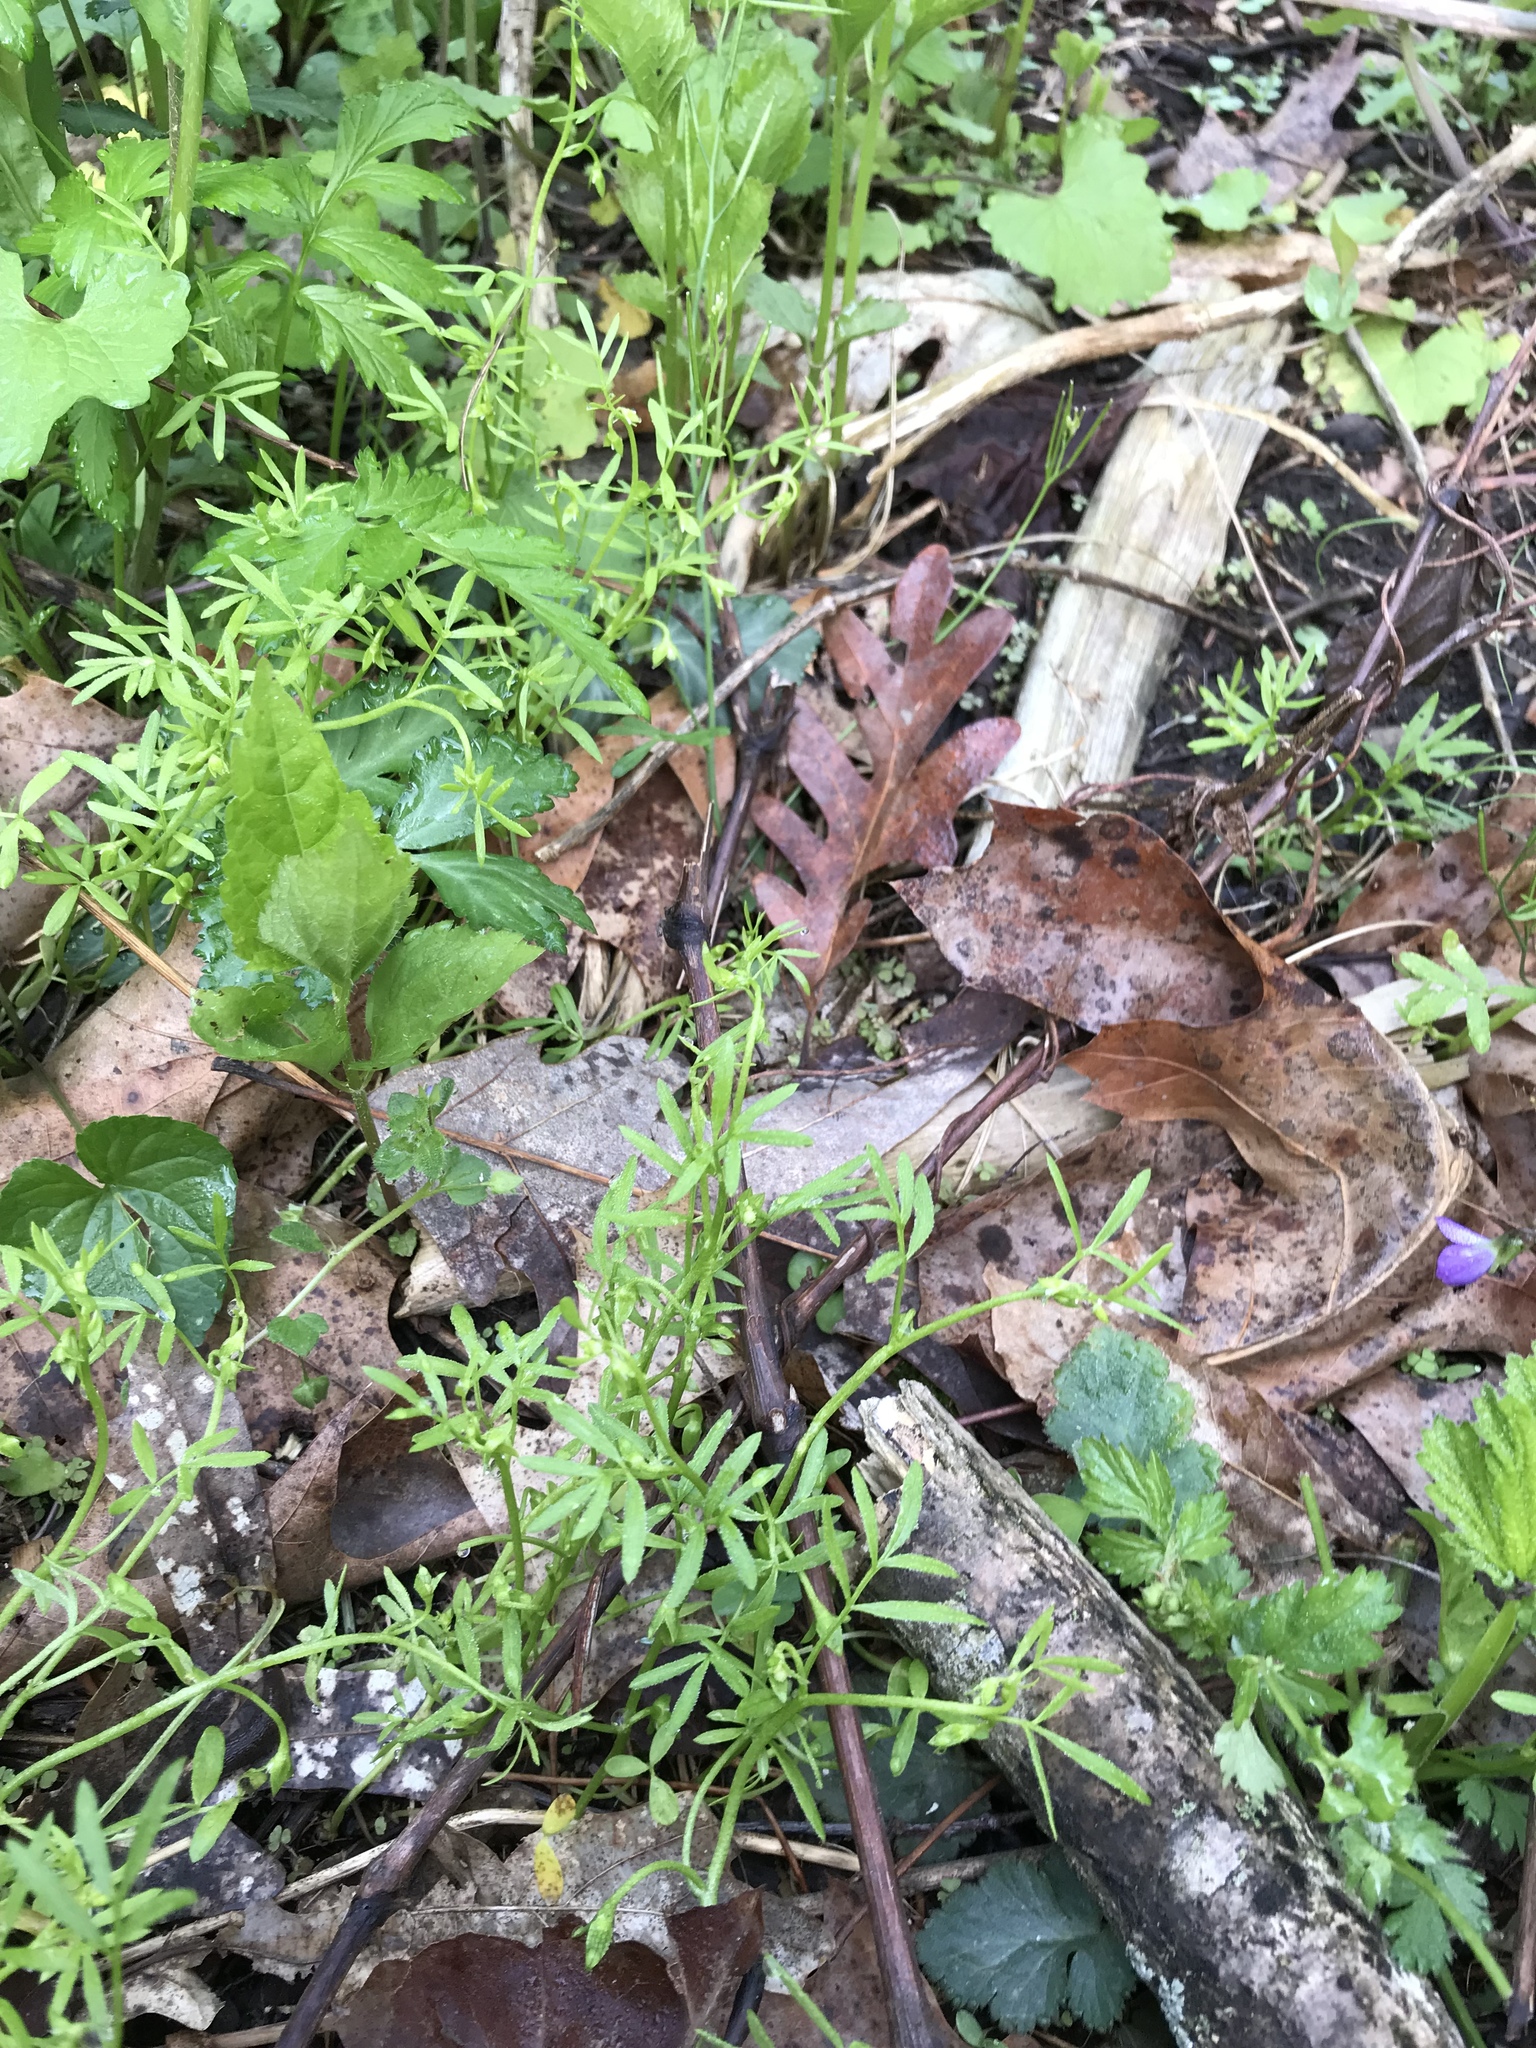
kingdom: Plantae
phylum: Tracheophyta
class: Magnoliopsida
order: Brassicales
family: Limnanthaceae
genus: Floerkea
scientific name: Floerkea proserpinacoides
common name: False mermaid
